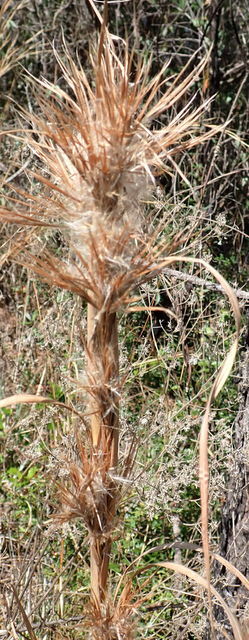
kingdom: Plantae
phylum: Tracheophyta
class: Liliopsida
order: Poales
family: Poaceae
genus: Andropogon
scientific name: Andropogon tenuispatheus
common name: Bushy bluestem
